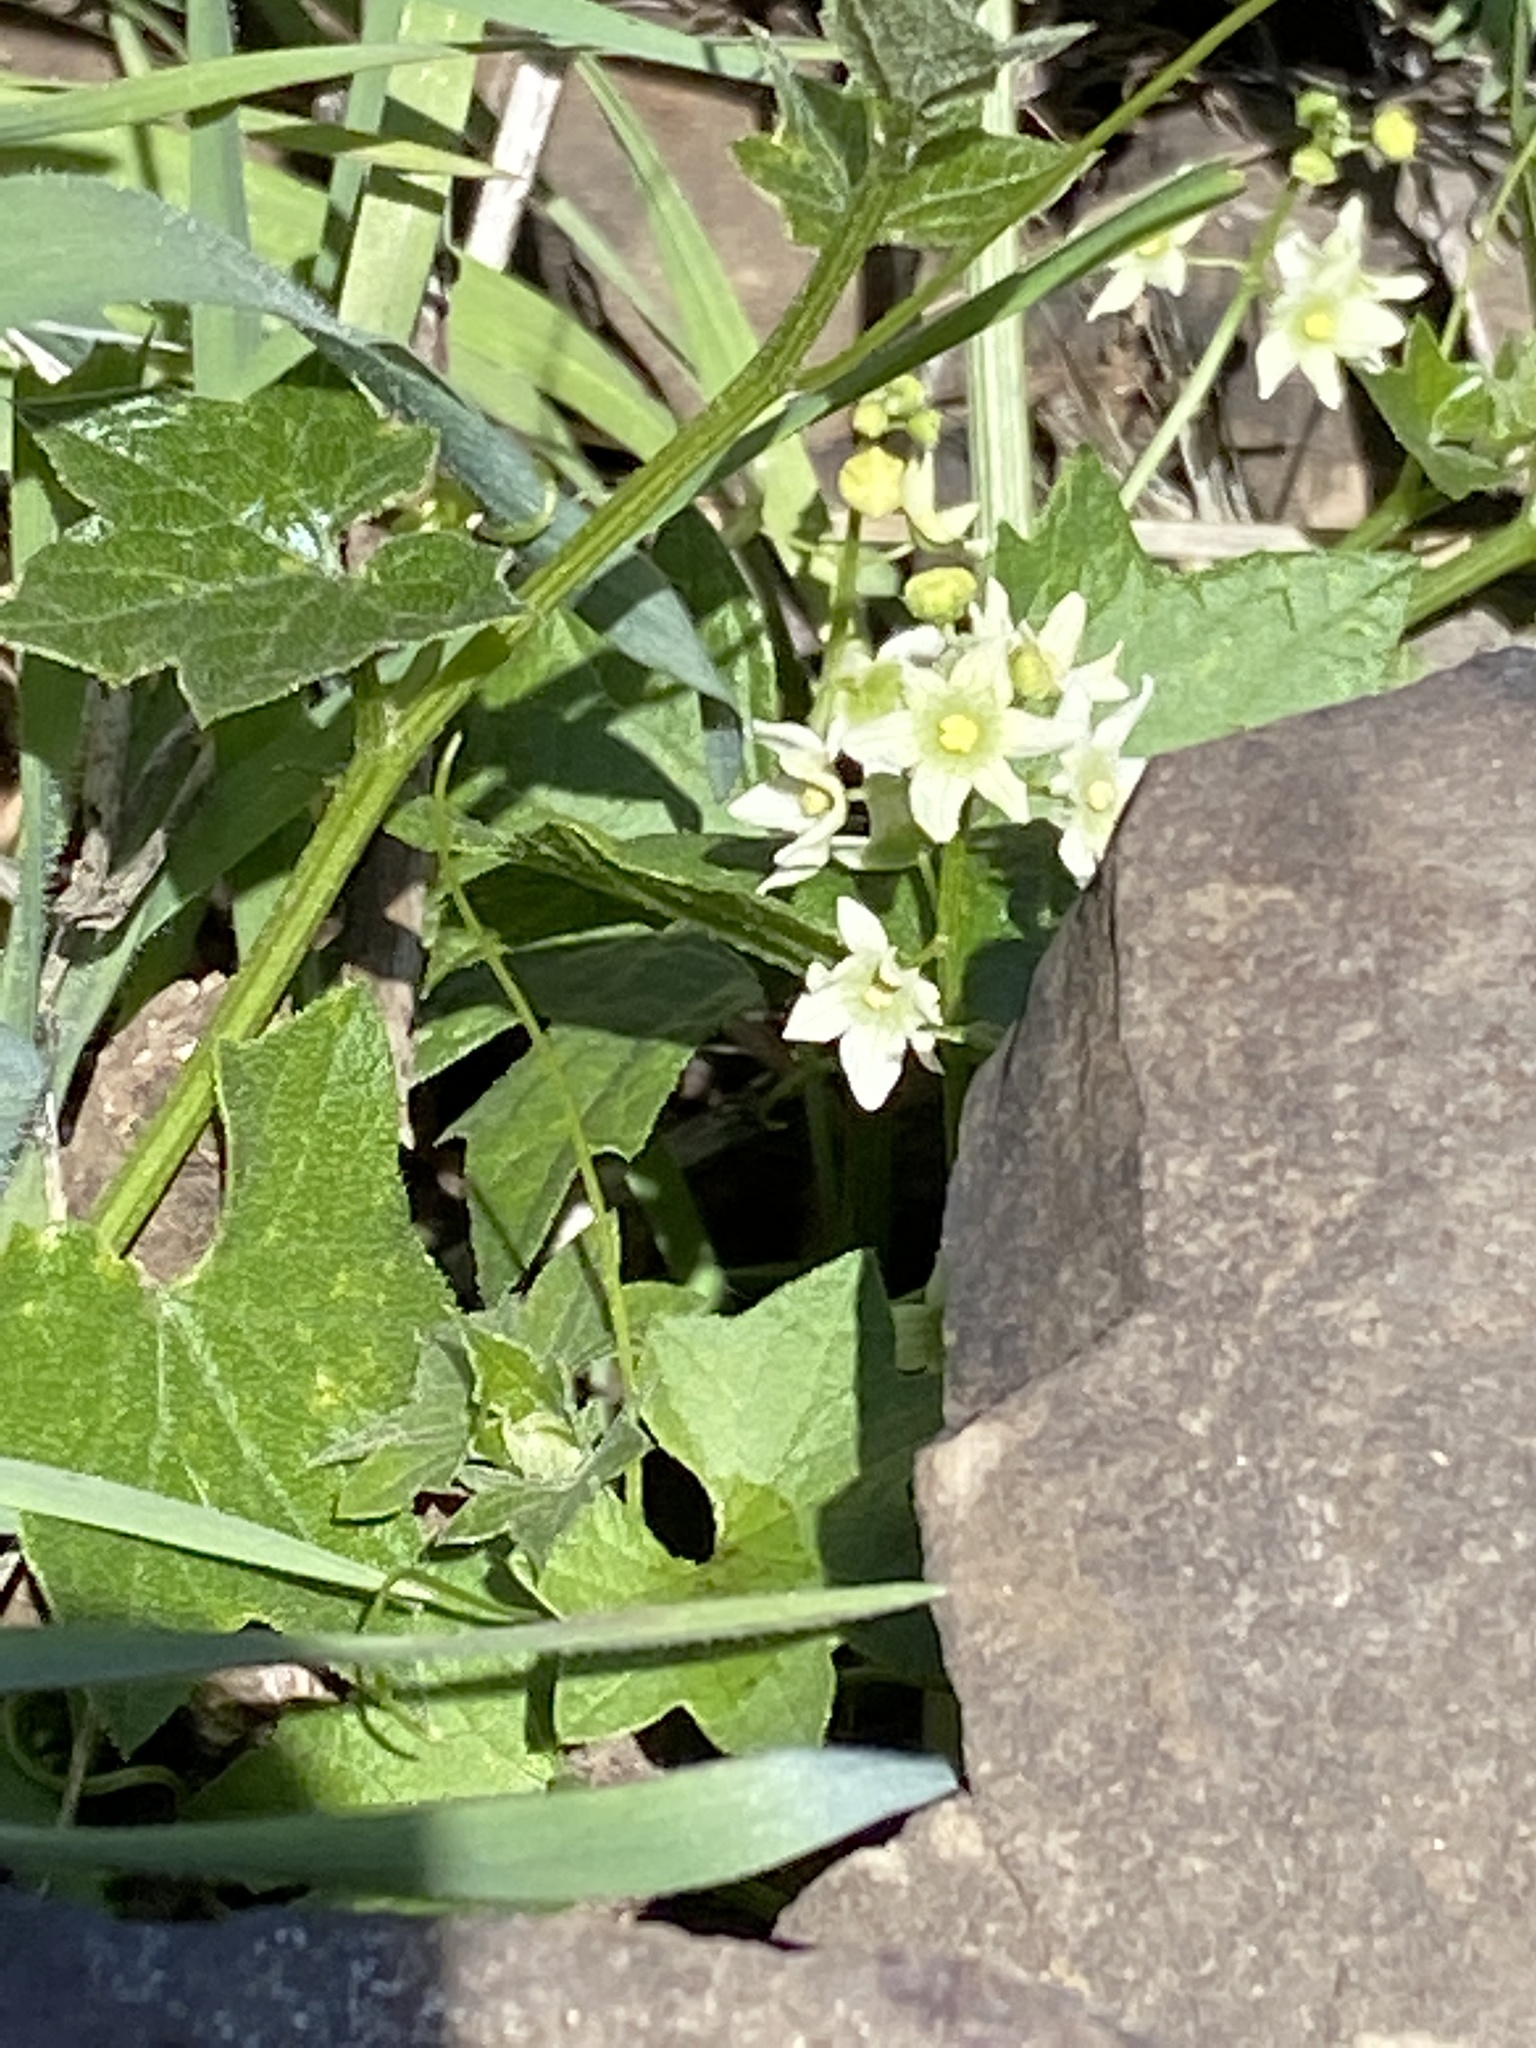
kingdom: Plantae
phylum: Tracheophyta
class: Magnoliopsida
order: Cucurbitales
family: Cucurbitaceae
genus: Marah
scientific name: Marah fabacea
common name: California manroot
